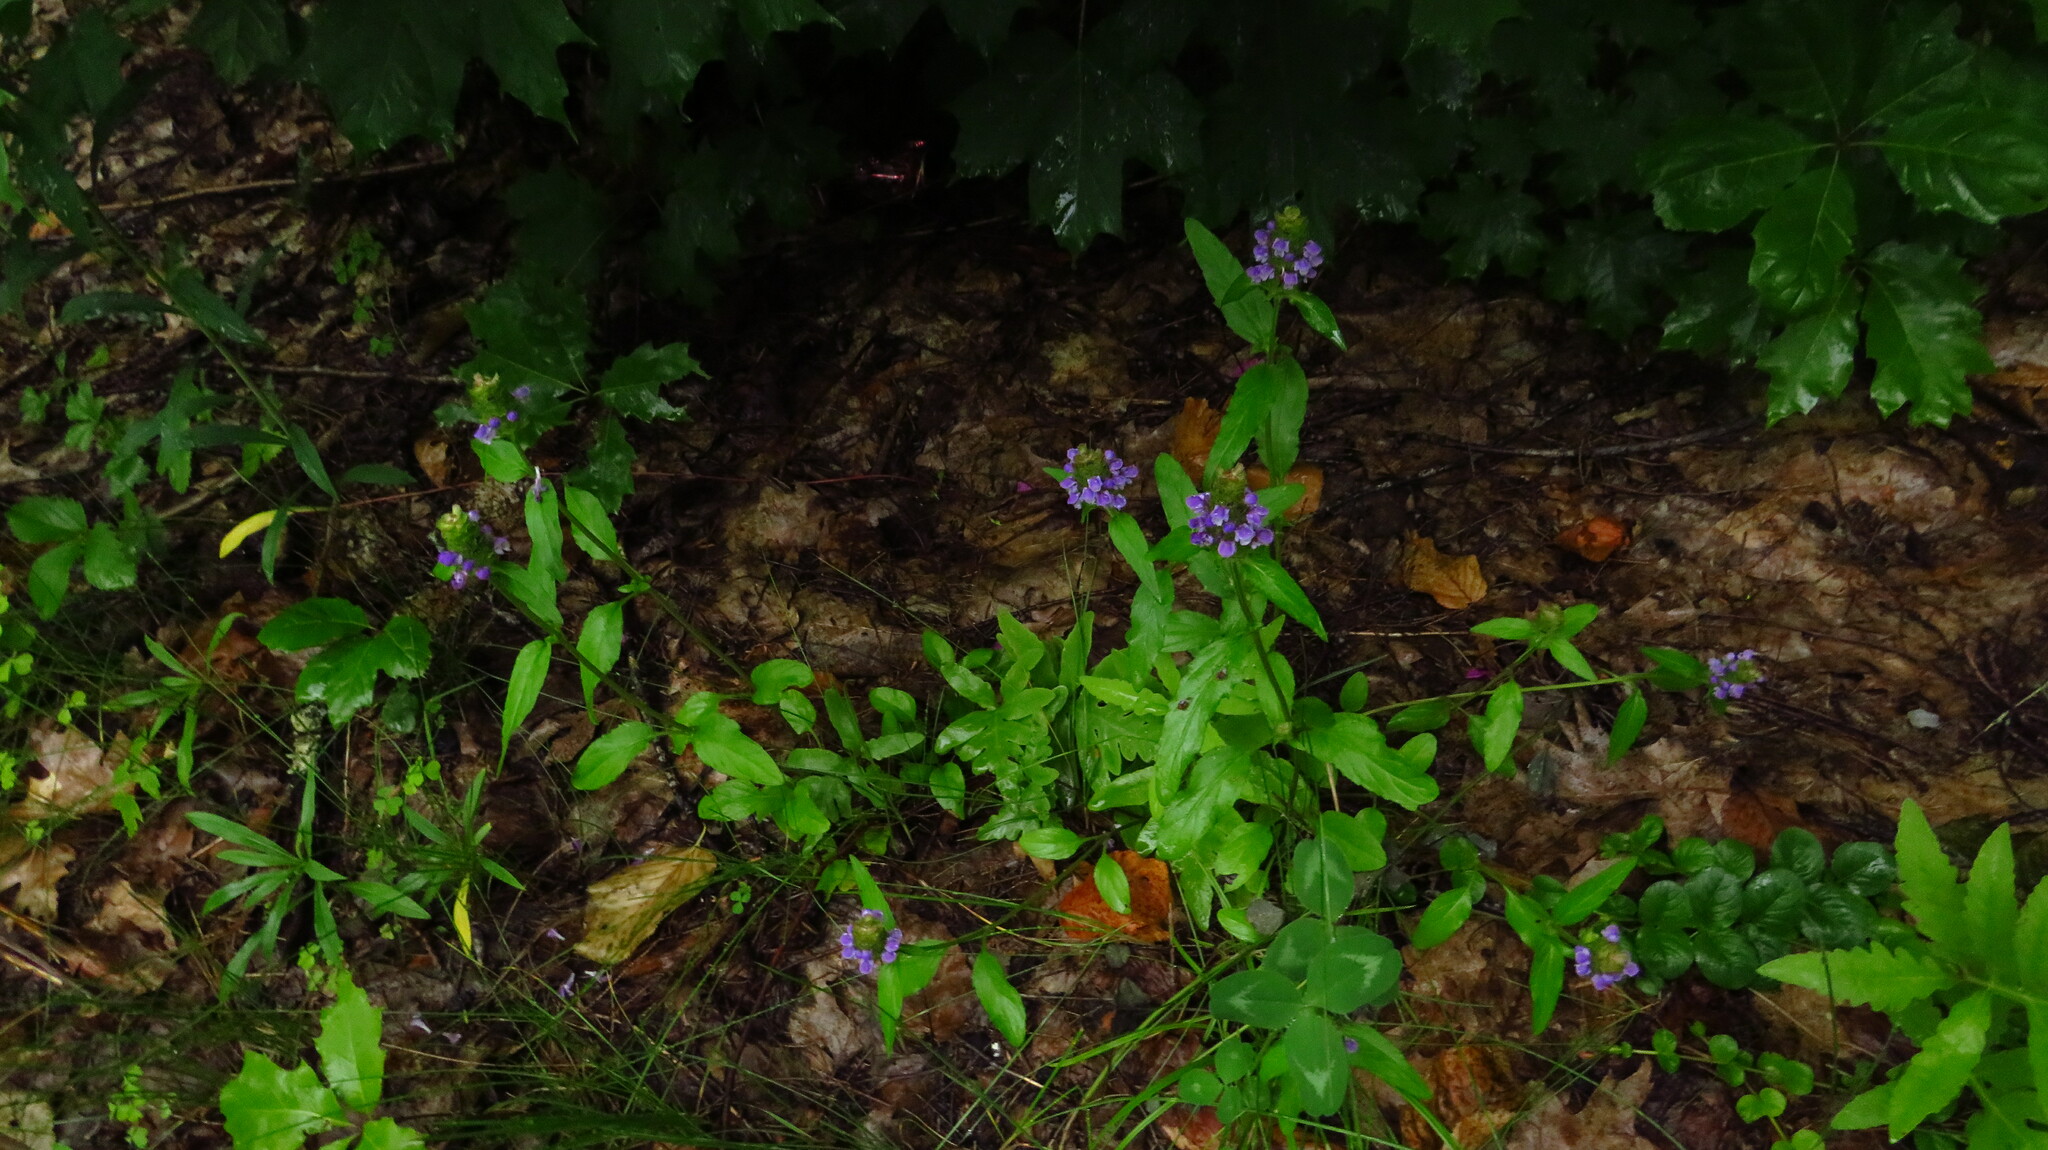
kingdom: Plantae
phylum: Tracheophyta
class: Magnoliopsida
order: Lamiales
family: Lamiaceae
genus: Prunella
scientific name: Prunella vulgaris
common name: Heal-all
